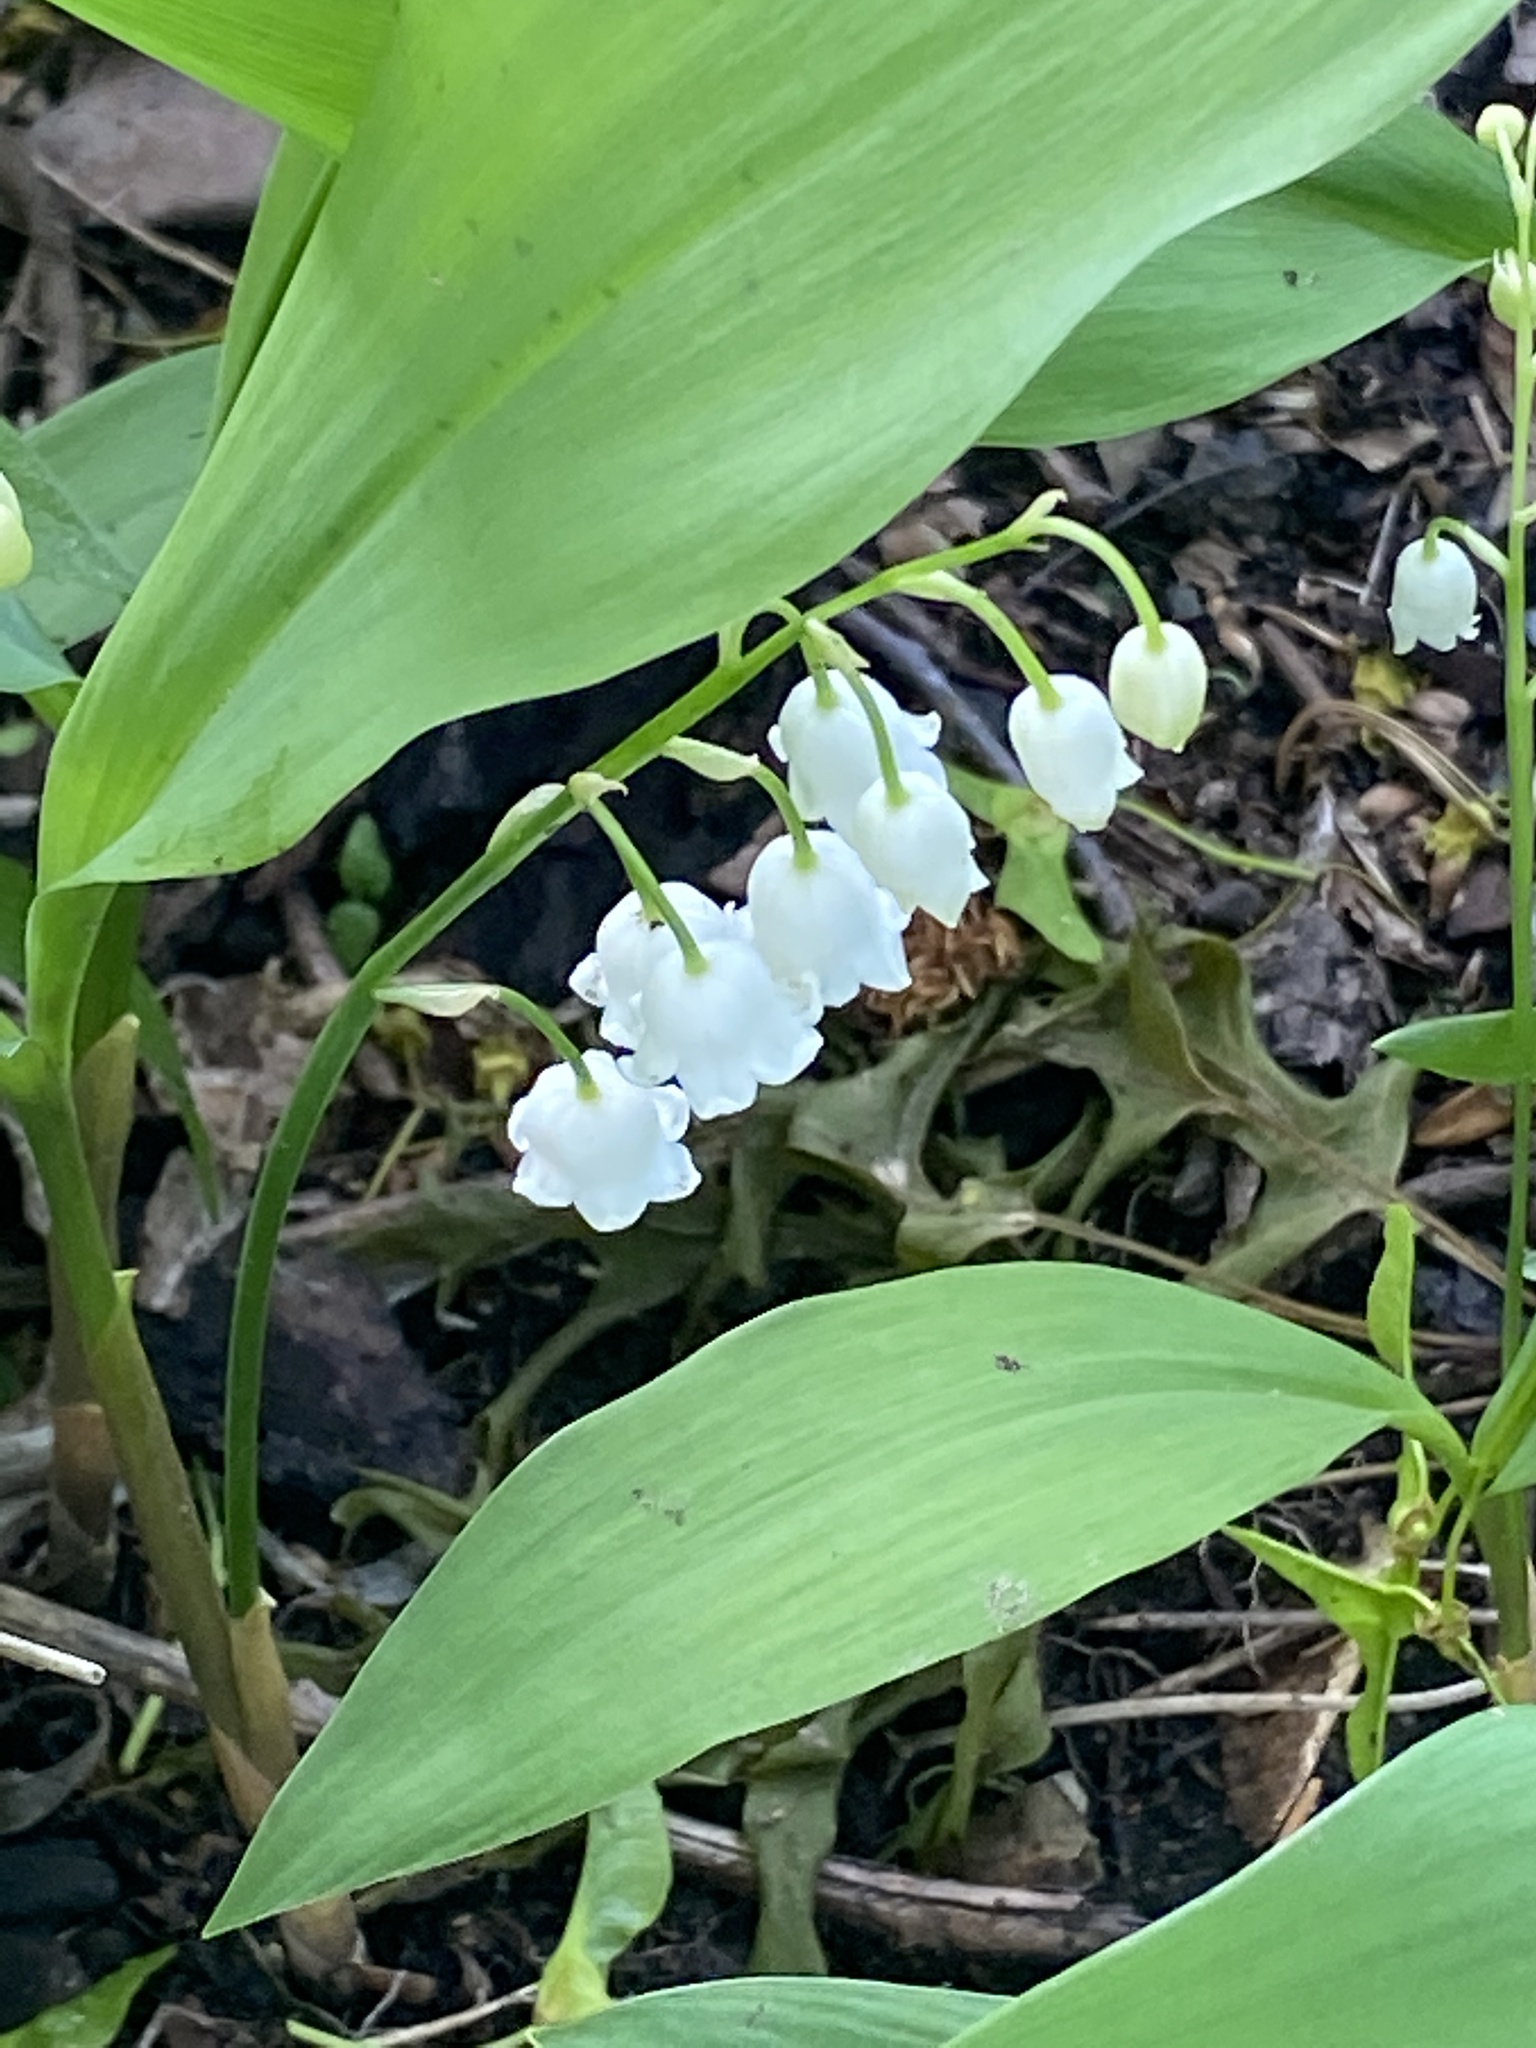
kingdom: Plantae
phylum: Tracheophyta
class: Liliopsida
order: Asparagales
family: Asparagaceae
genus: Convallaria
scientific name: Convallaria majalis
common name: Lily-of-the-valley
